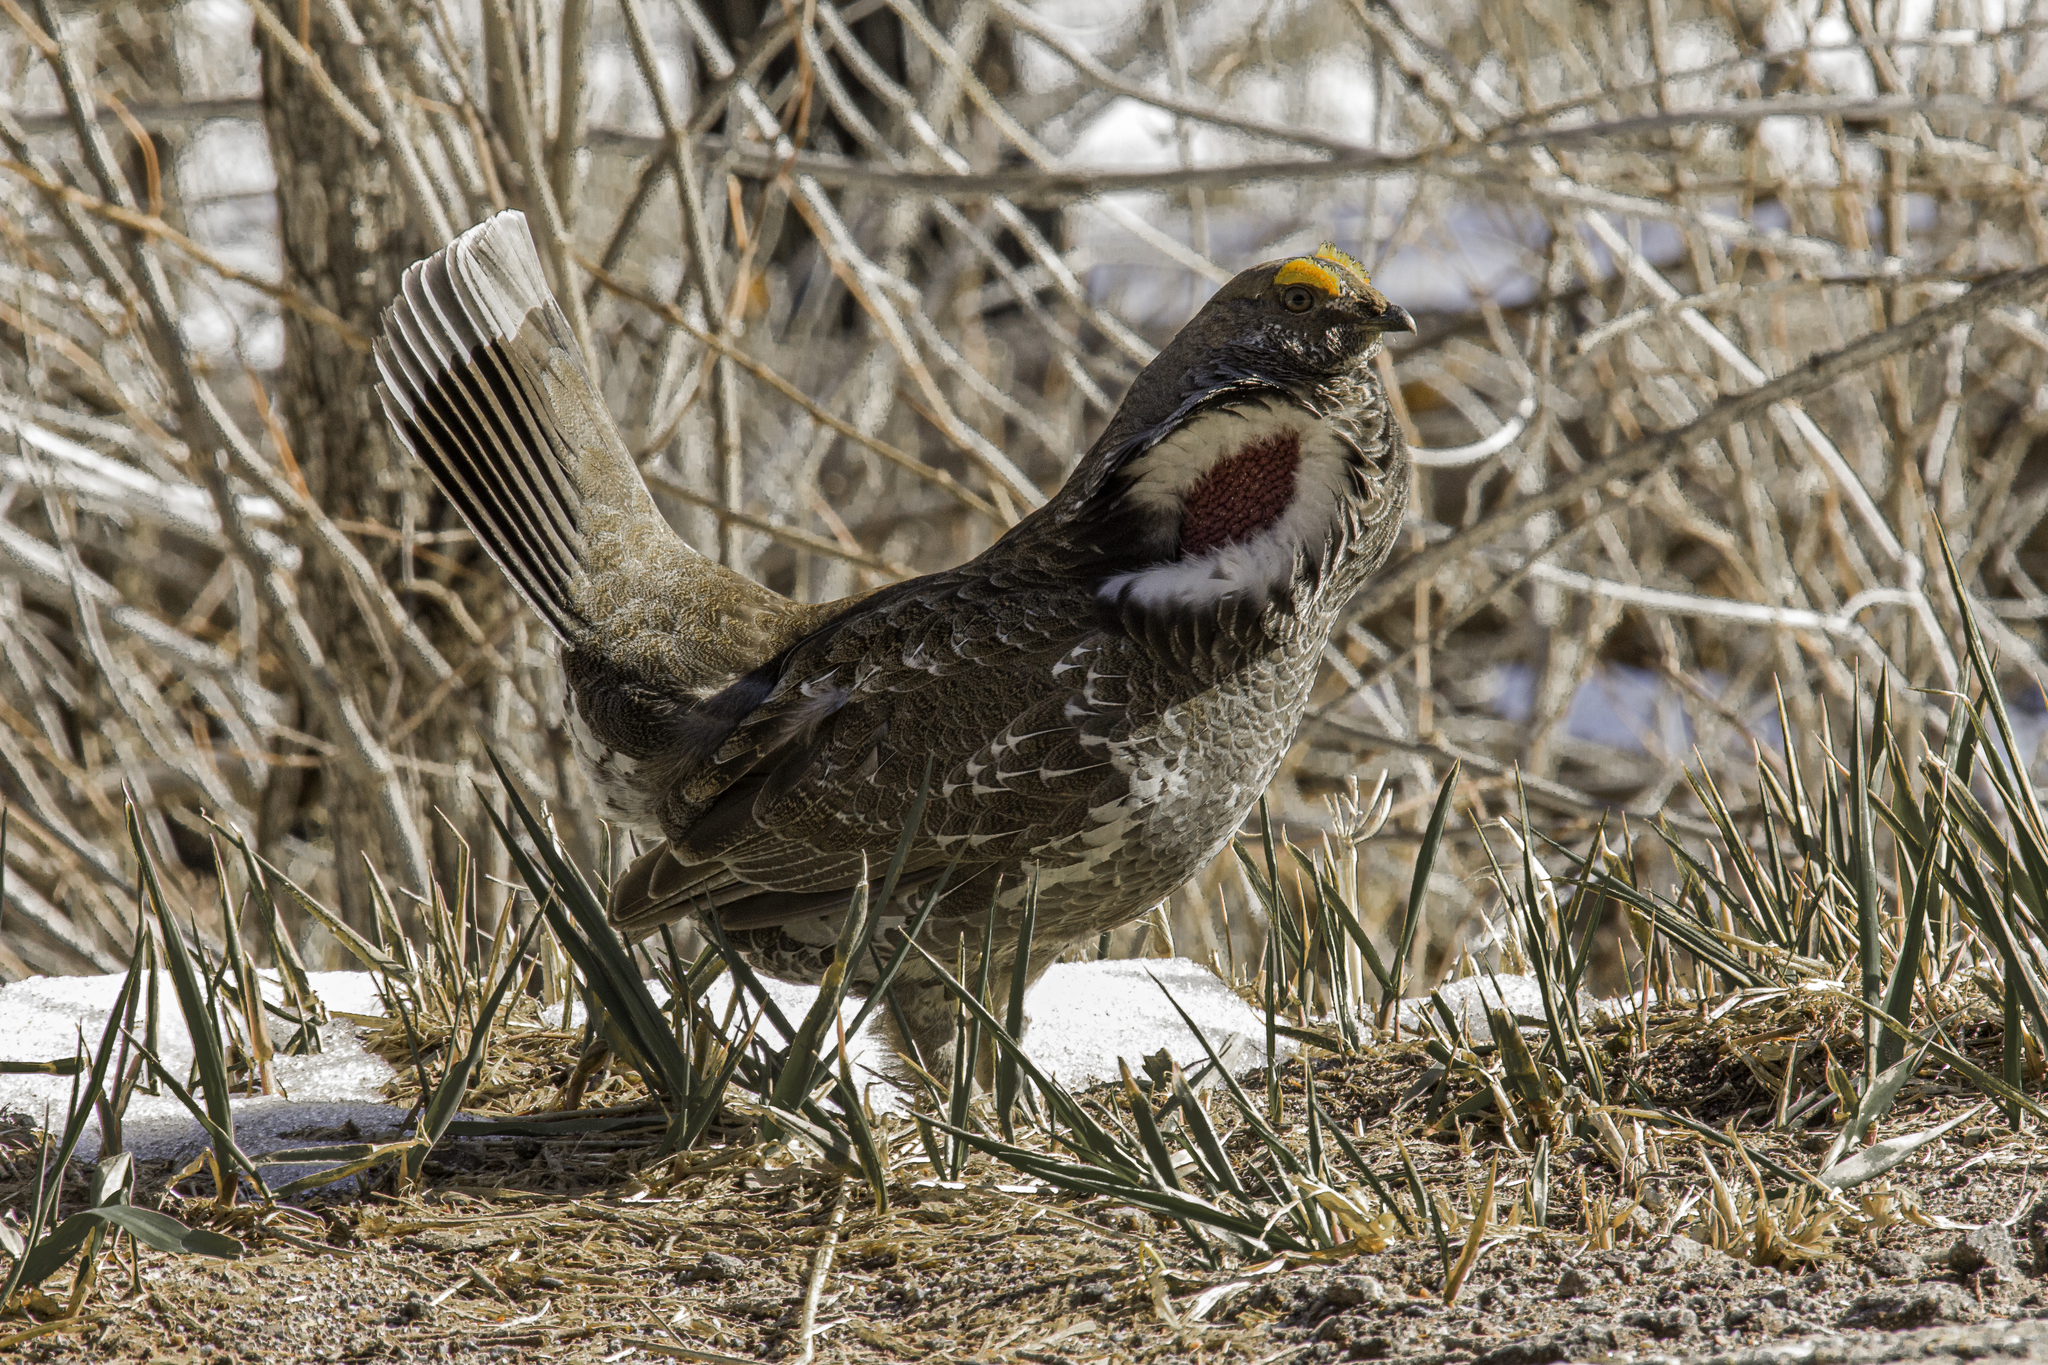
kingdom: Animalia
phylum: Chordata
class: Aves
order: Galliformes
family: Phasianidae
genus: Dendragapus
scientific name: Dendragapus obscurus
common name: Dusky grouse
